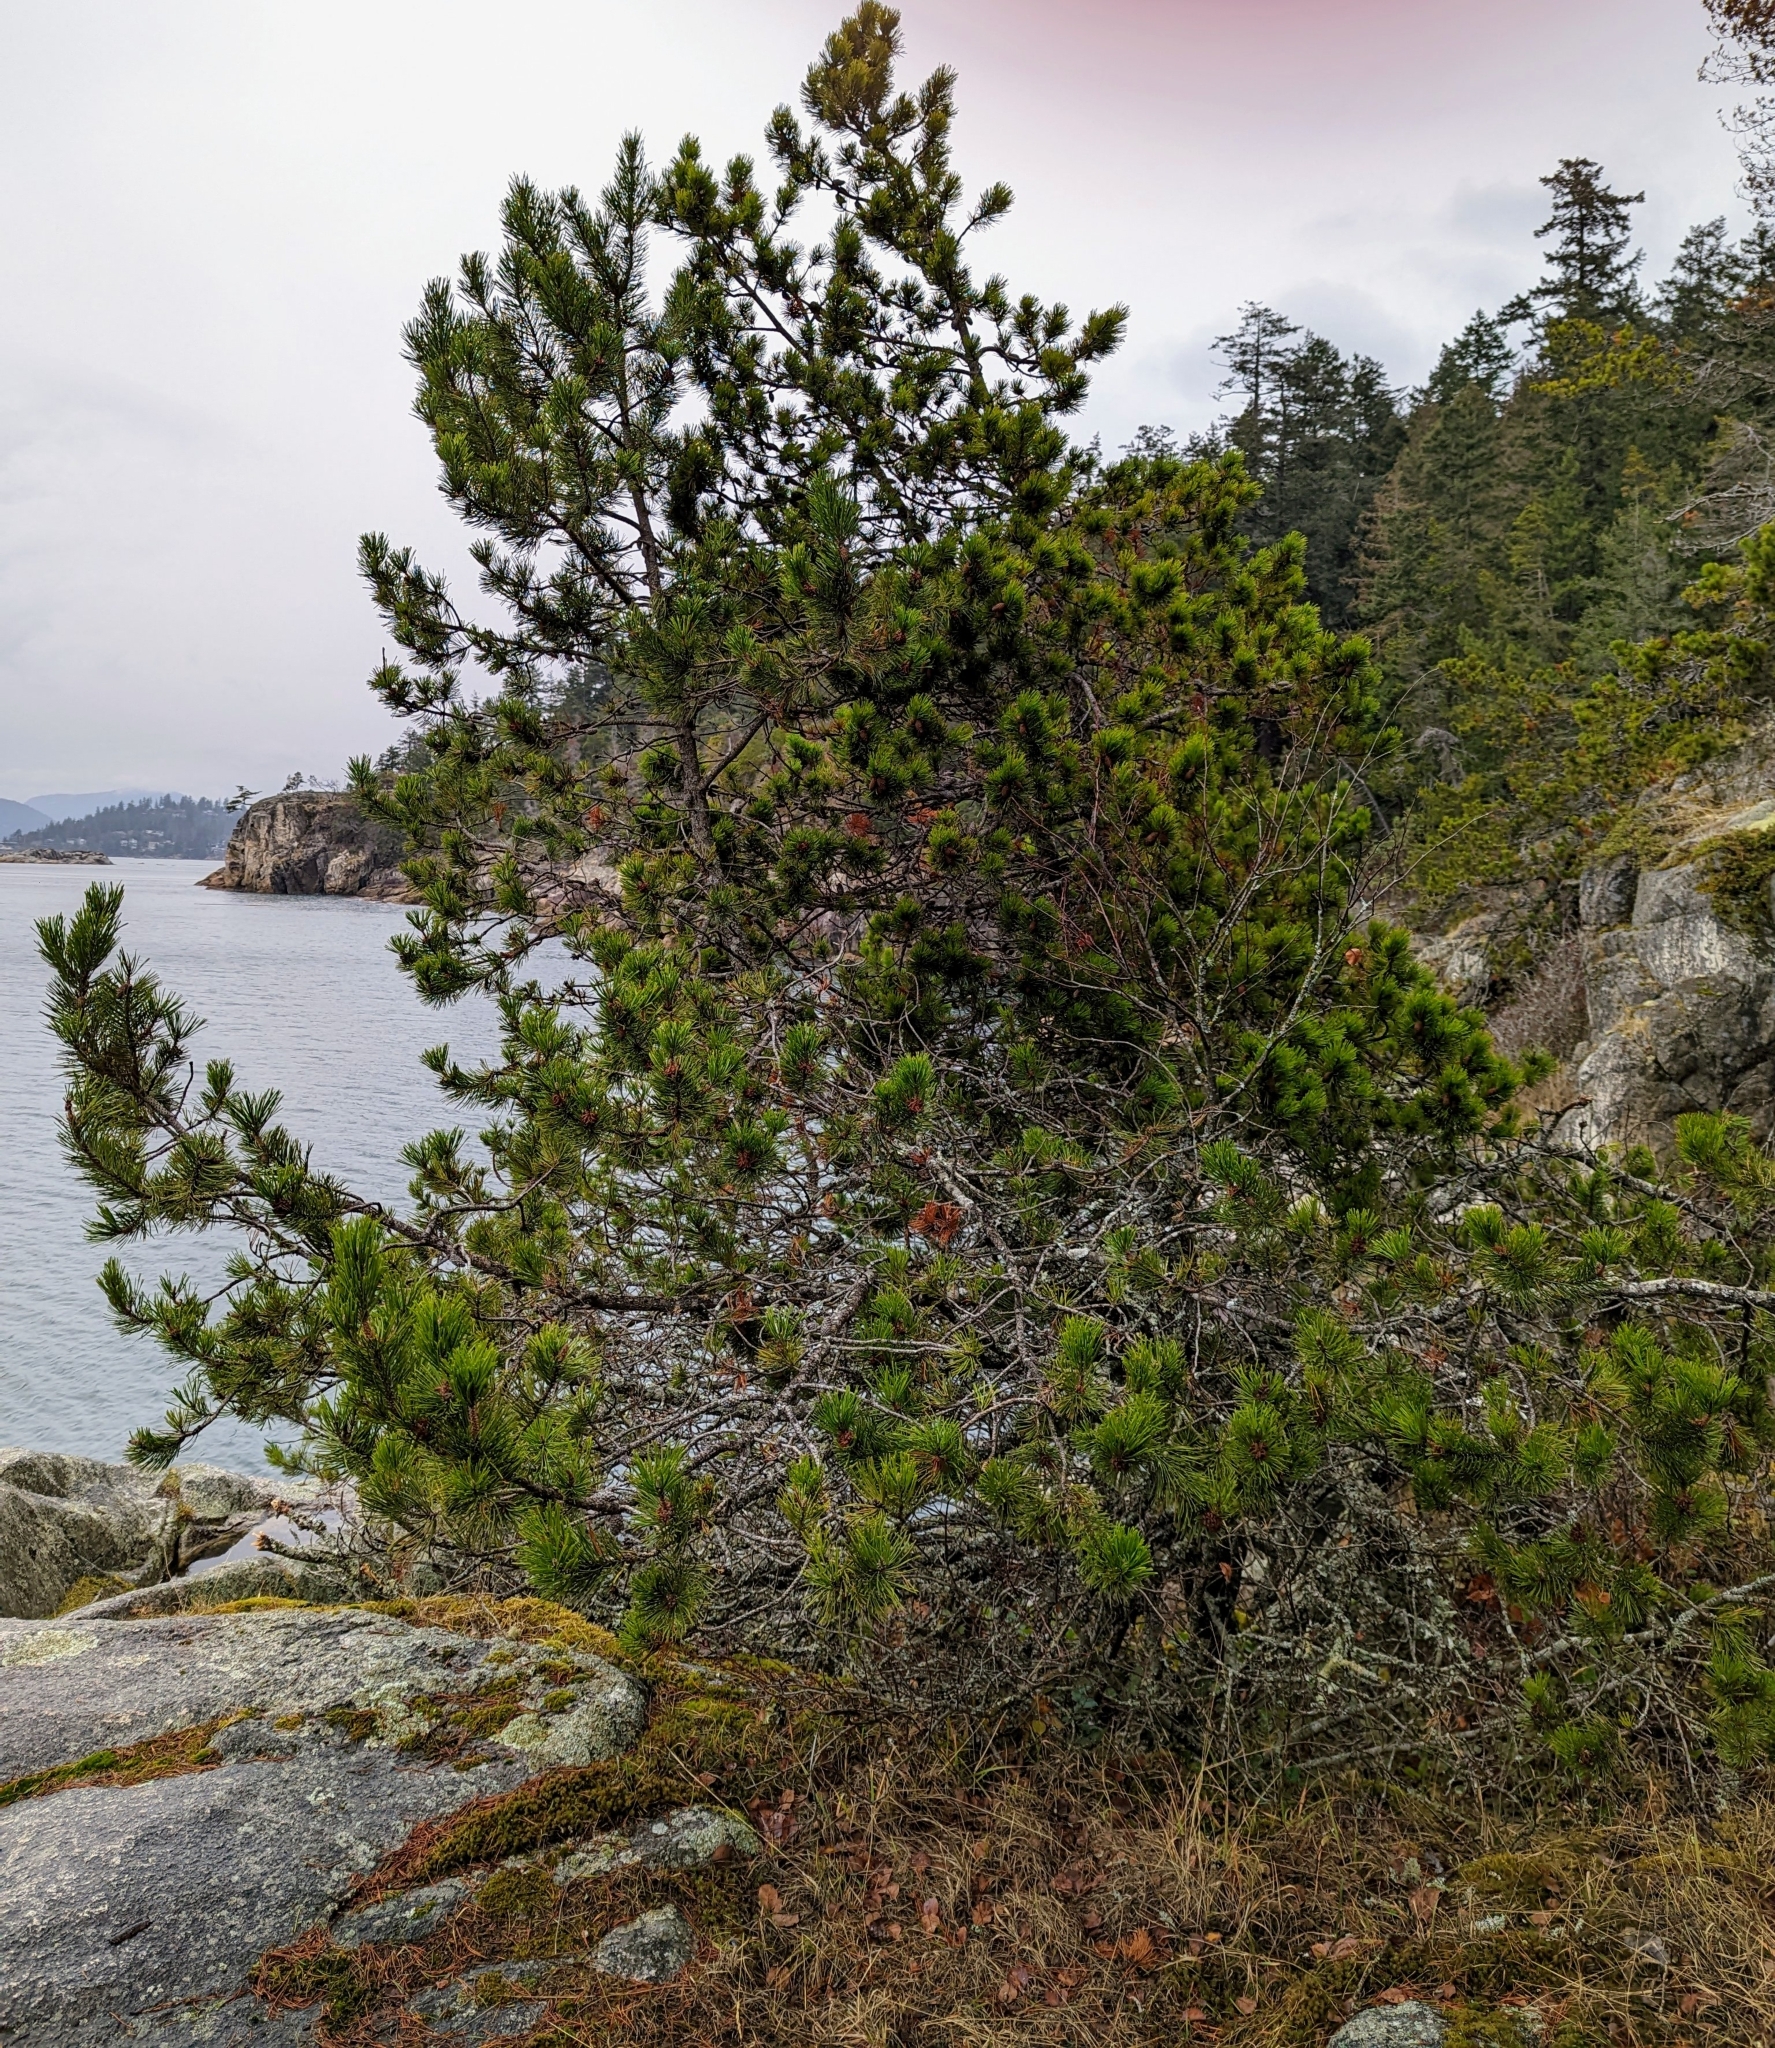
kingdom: Plantae
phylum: Tracheophyta
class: Pinopsida
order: Pinales
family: Pinaceae
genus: Pinus
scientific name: Pinus contorta
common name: Lodgepole pine
